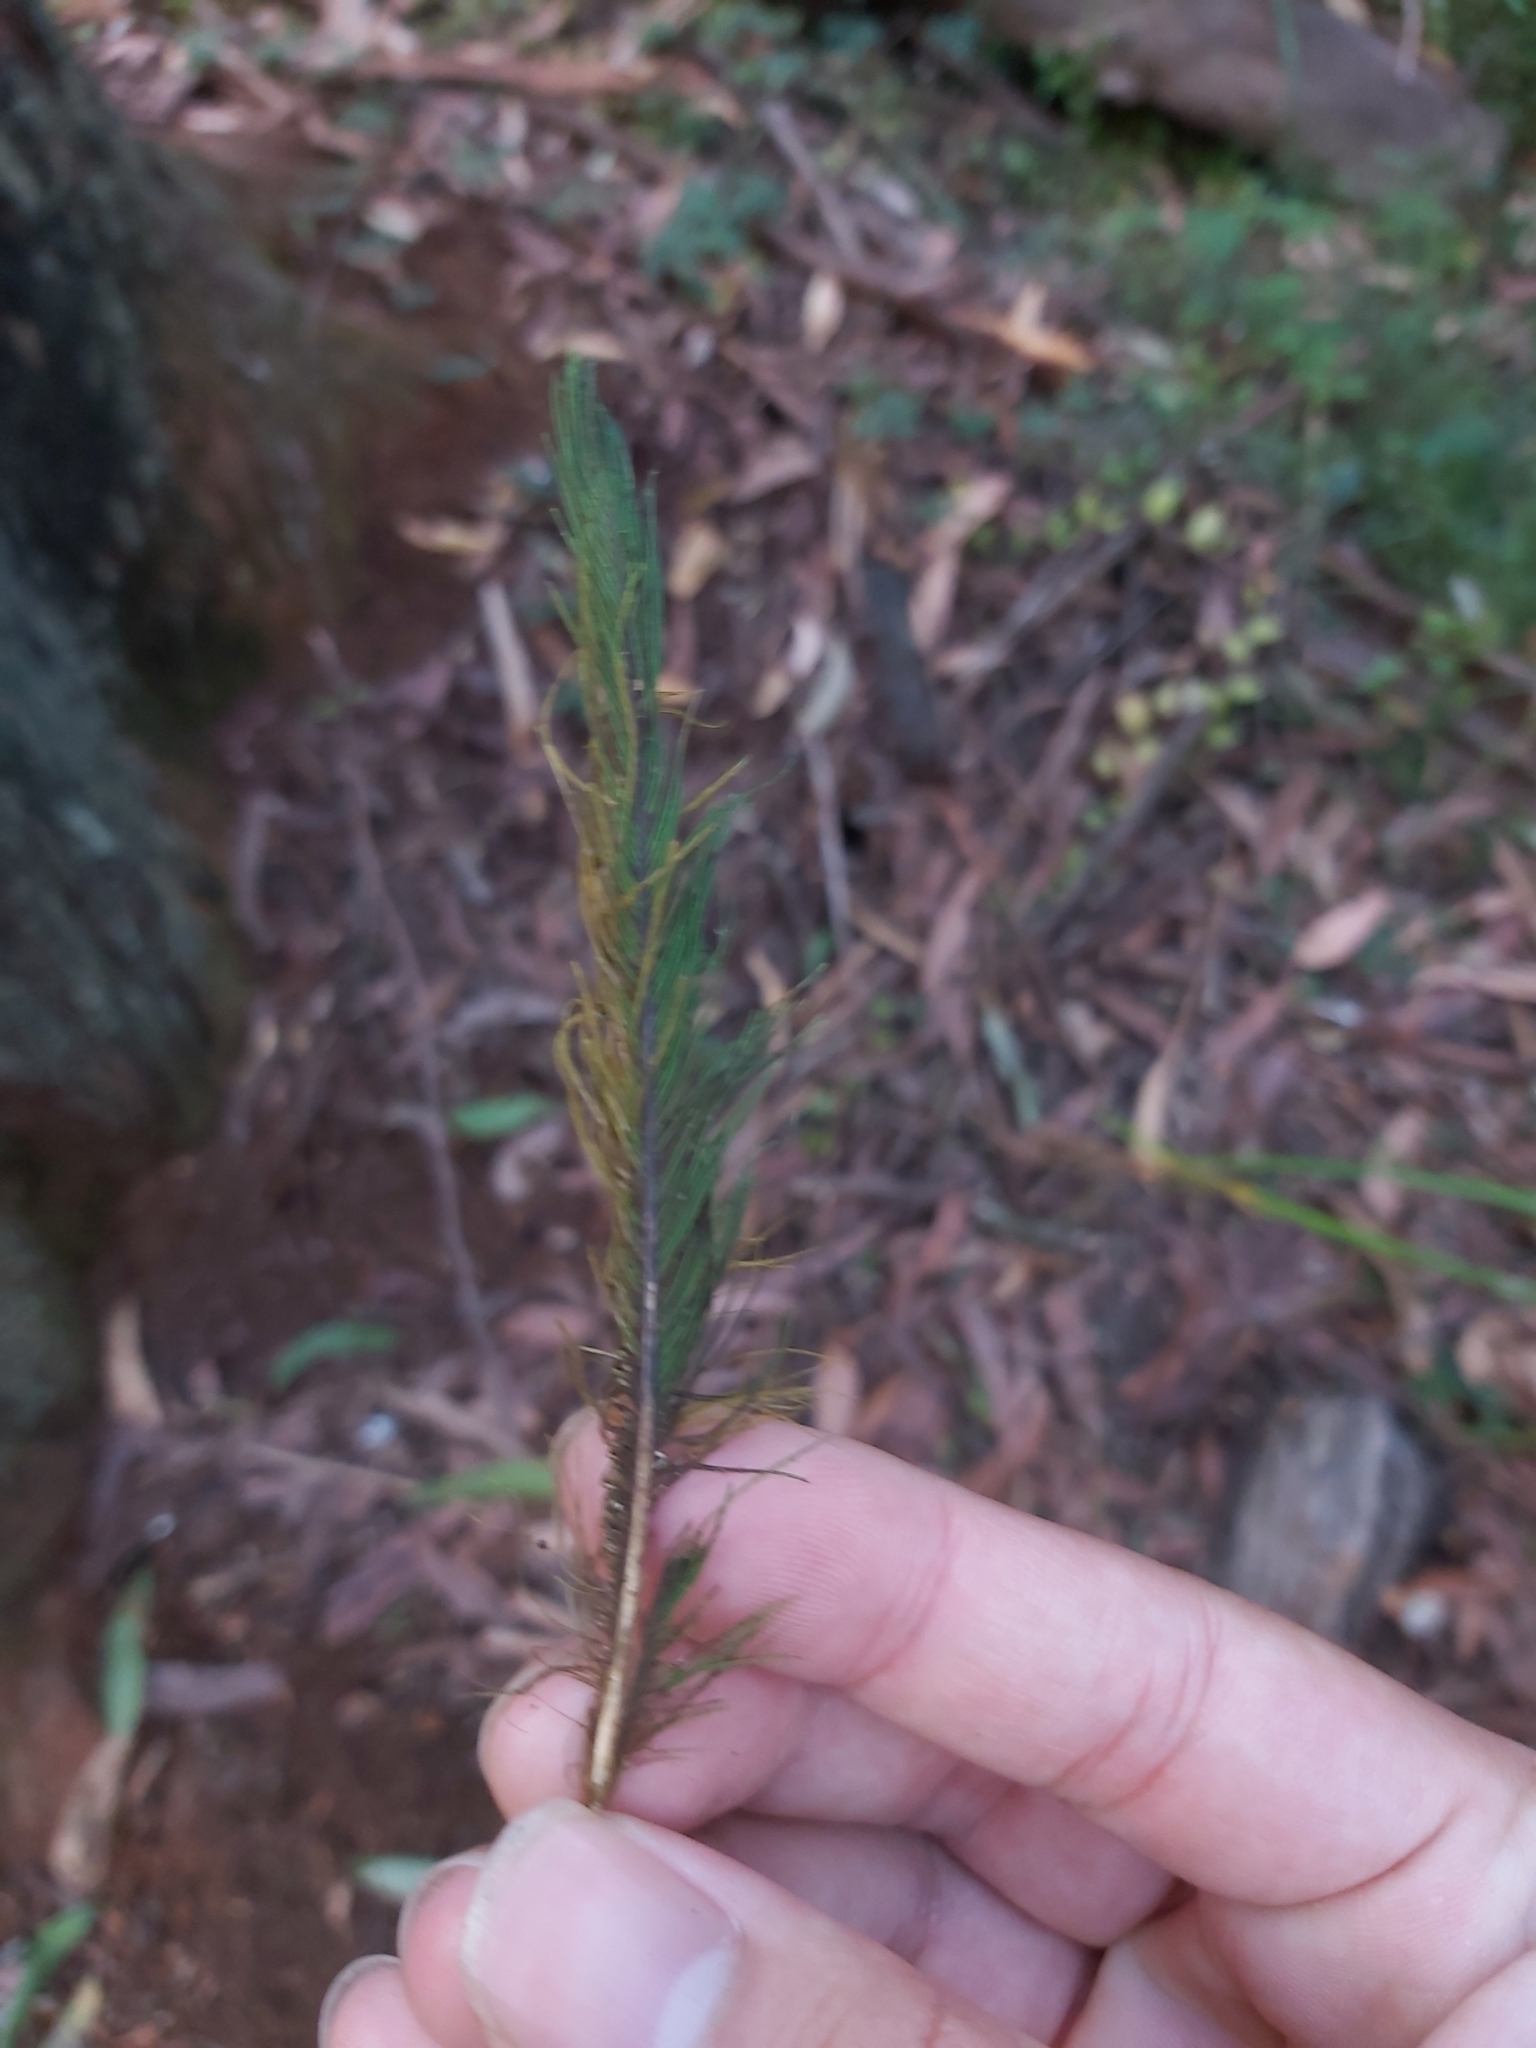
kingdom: Animalia
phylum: Chordata
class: Aves
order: Psittaciformes
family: Psittacidae
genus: Trichoglossus
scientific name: Trichoglossus haematodus
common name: Coconut lorikeet
